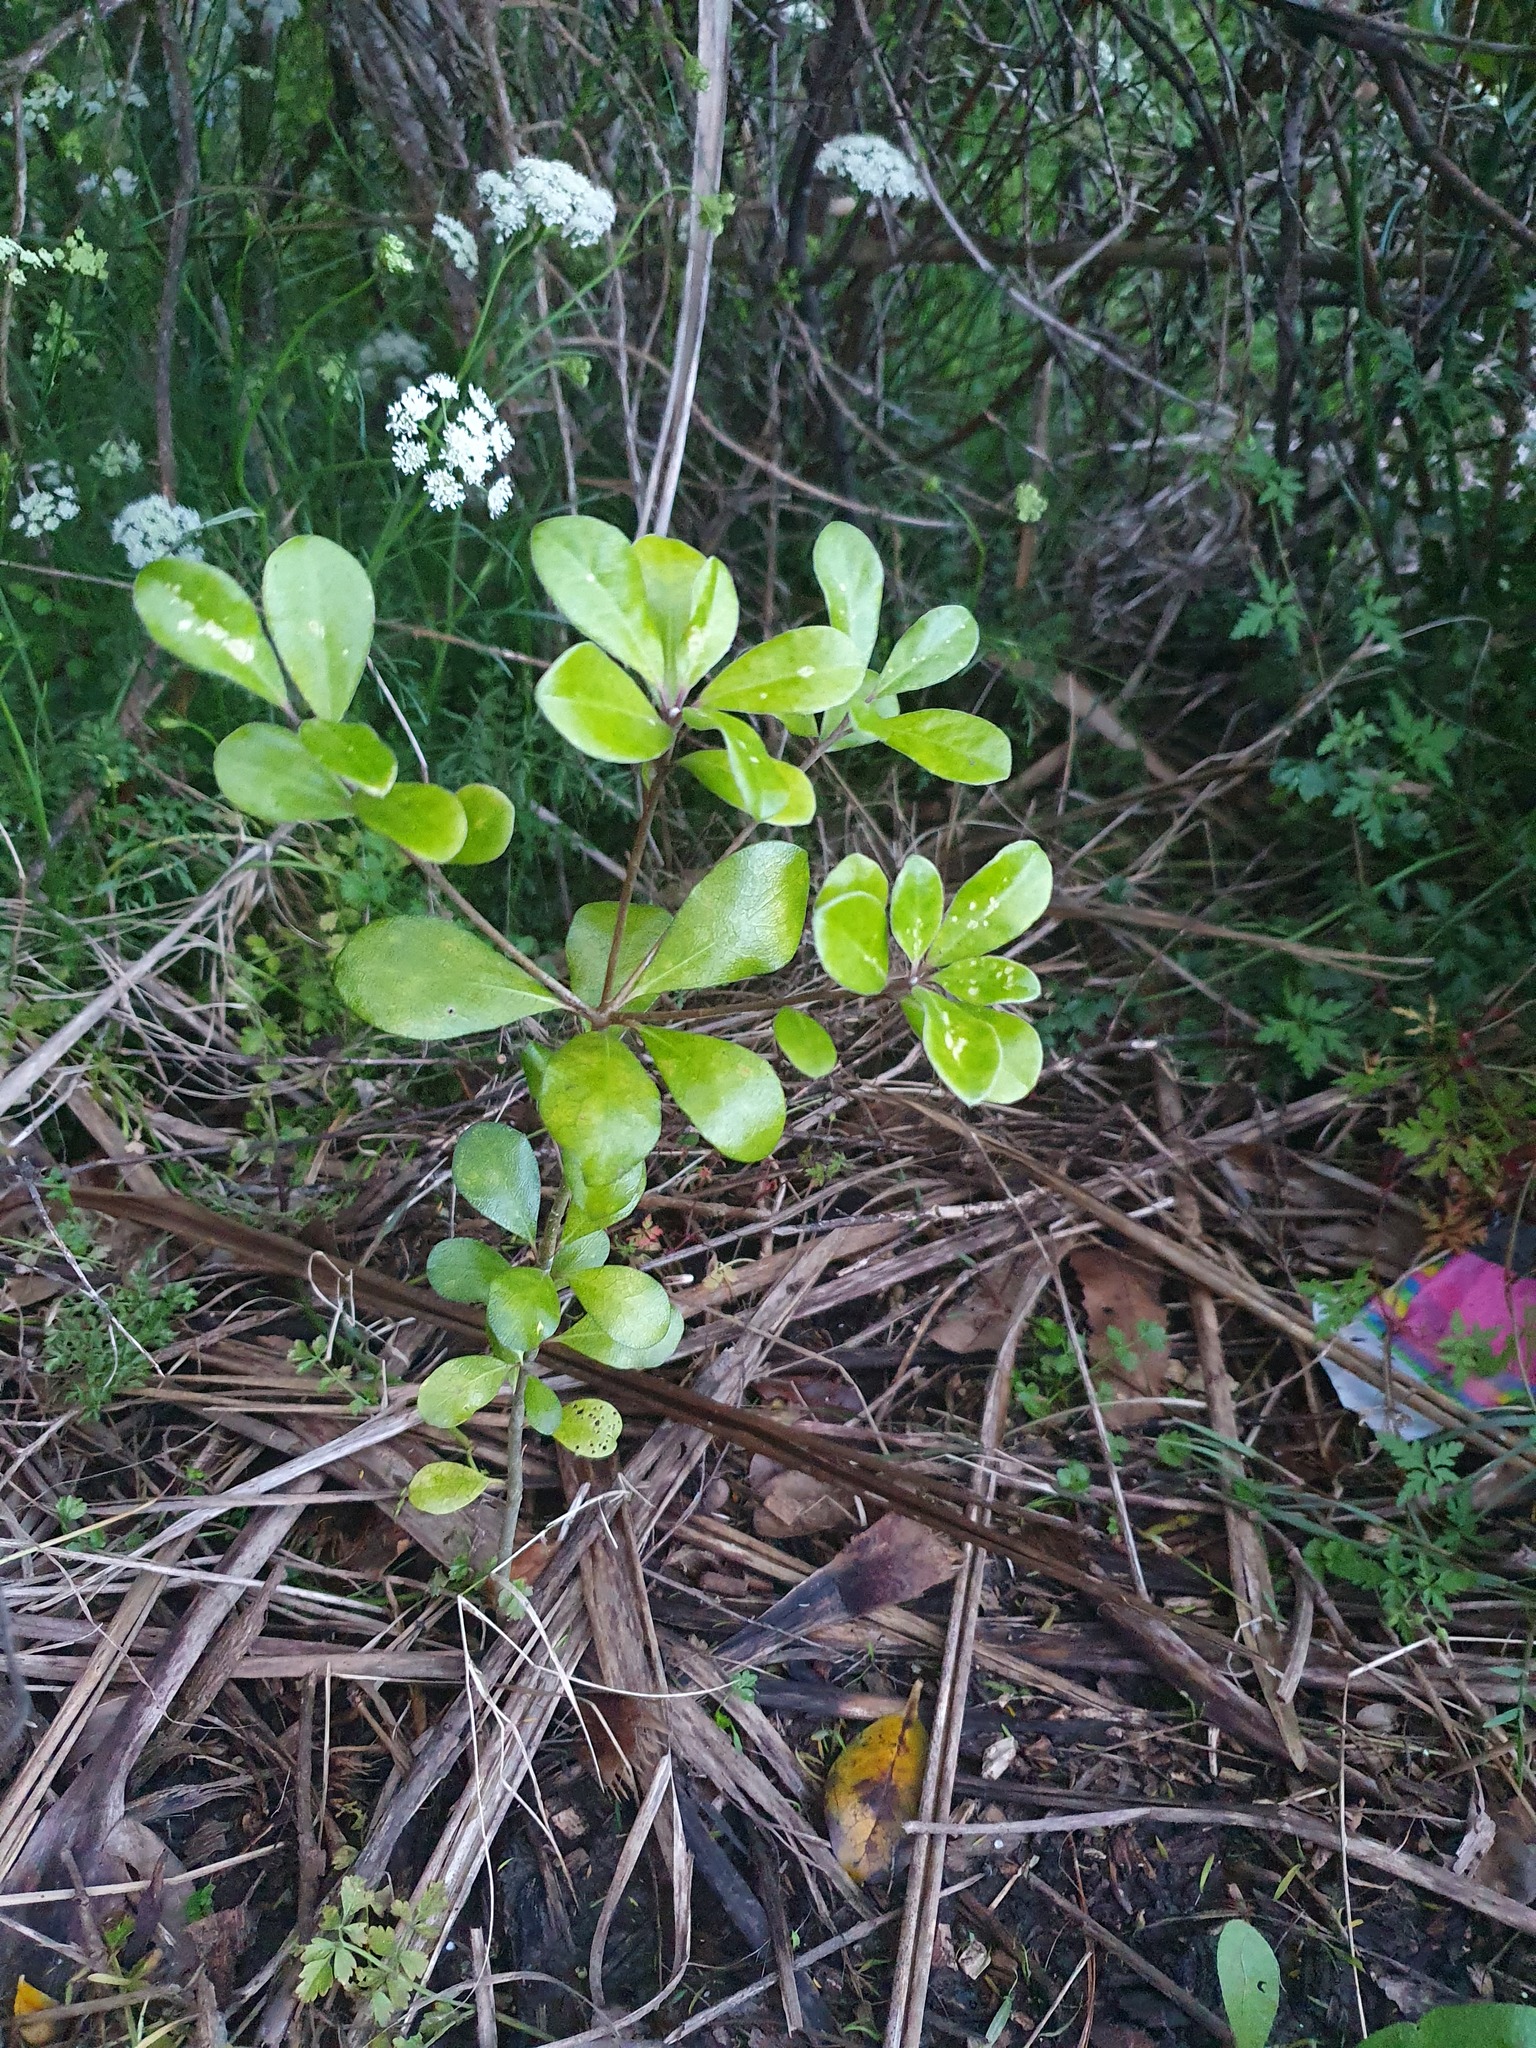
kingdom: Plantae
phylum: Tracheophyta
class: Magnoliopsida
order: Apiales
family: Pittosporaceae
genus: Pittosporum
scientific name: Pittosporum crassifolium
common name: Karo
